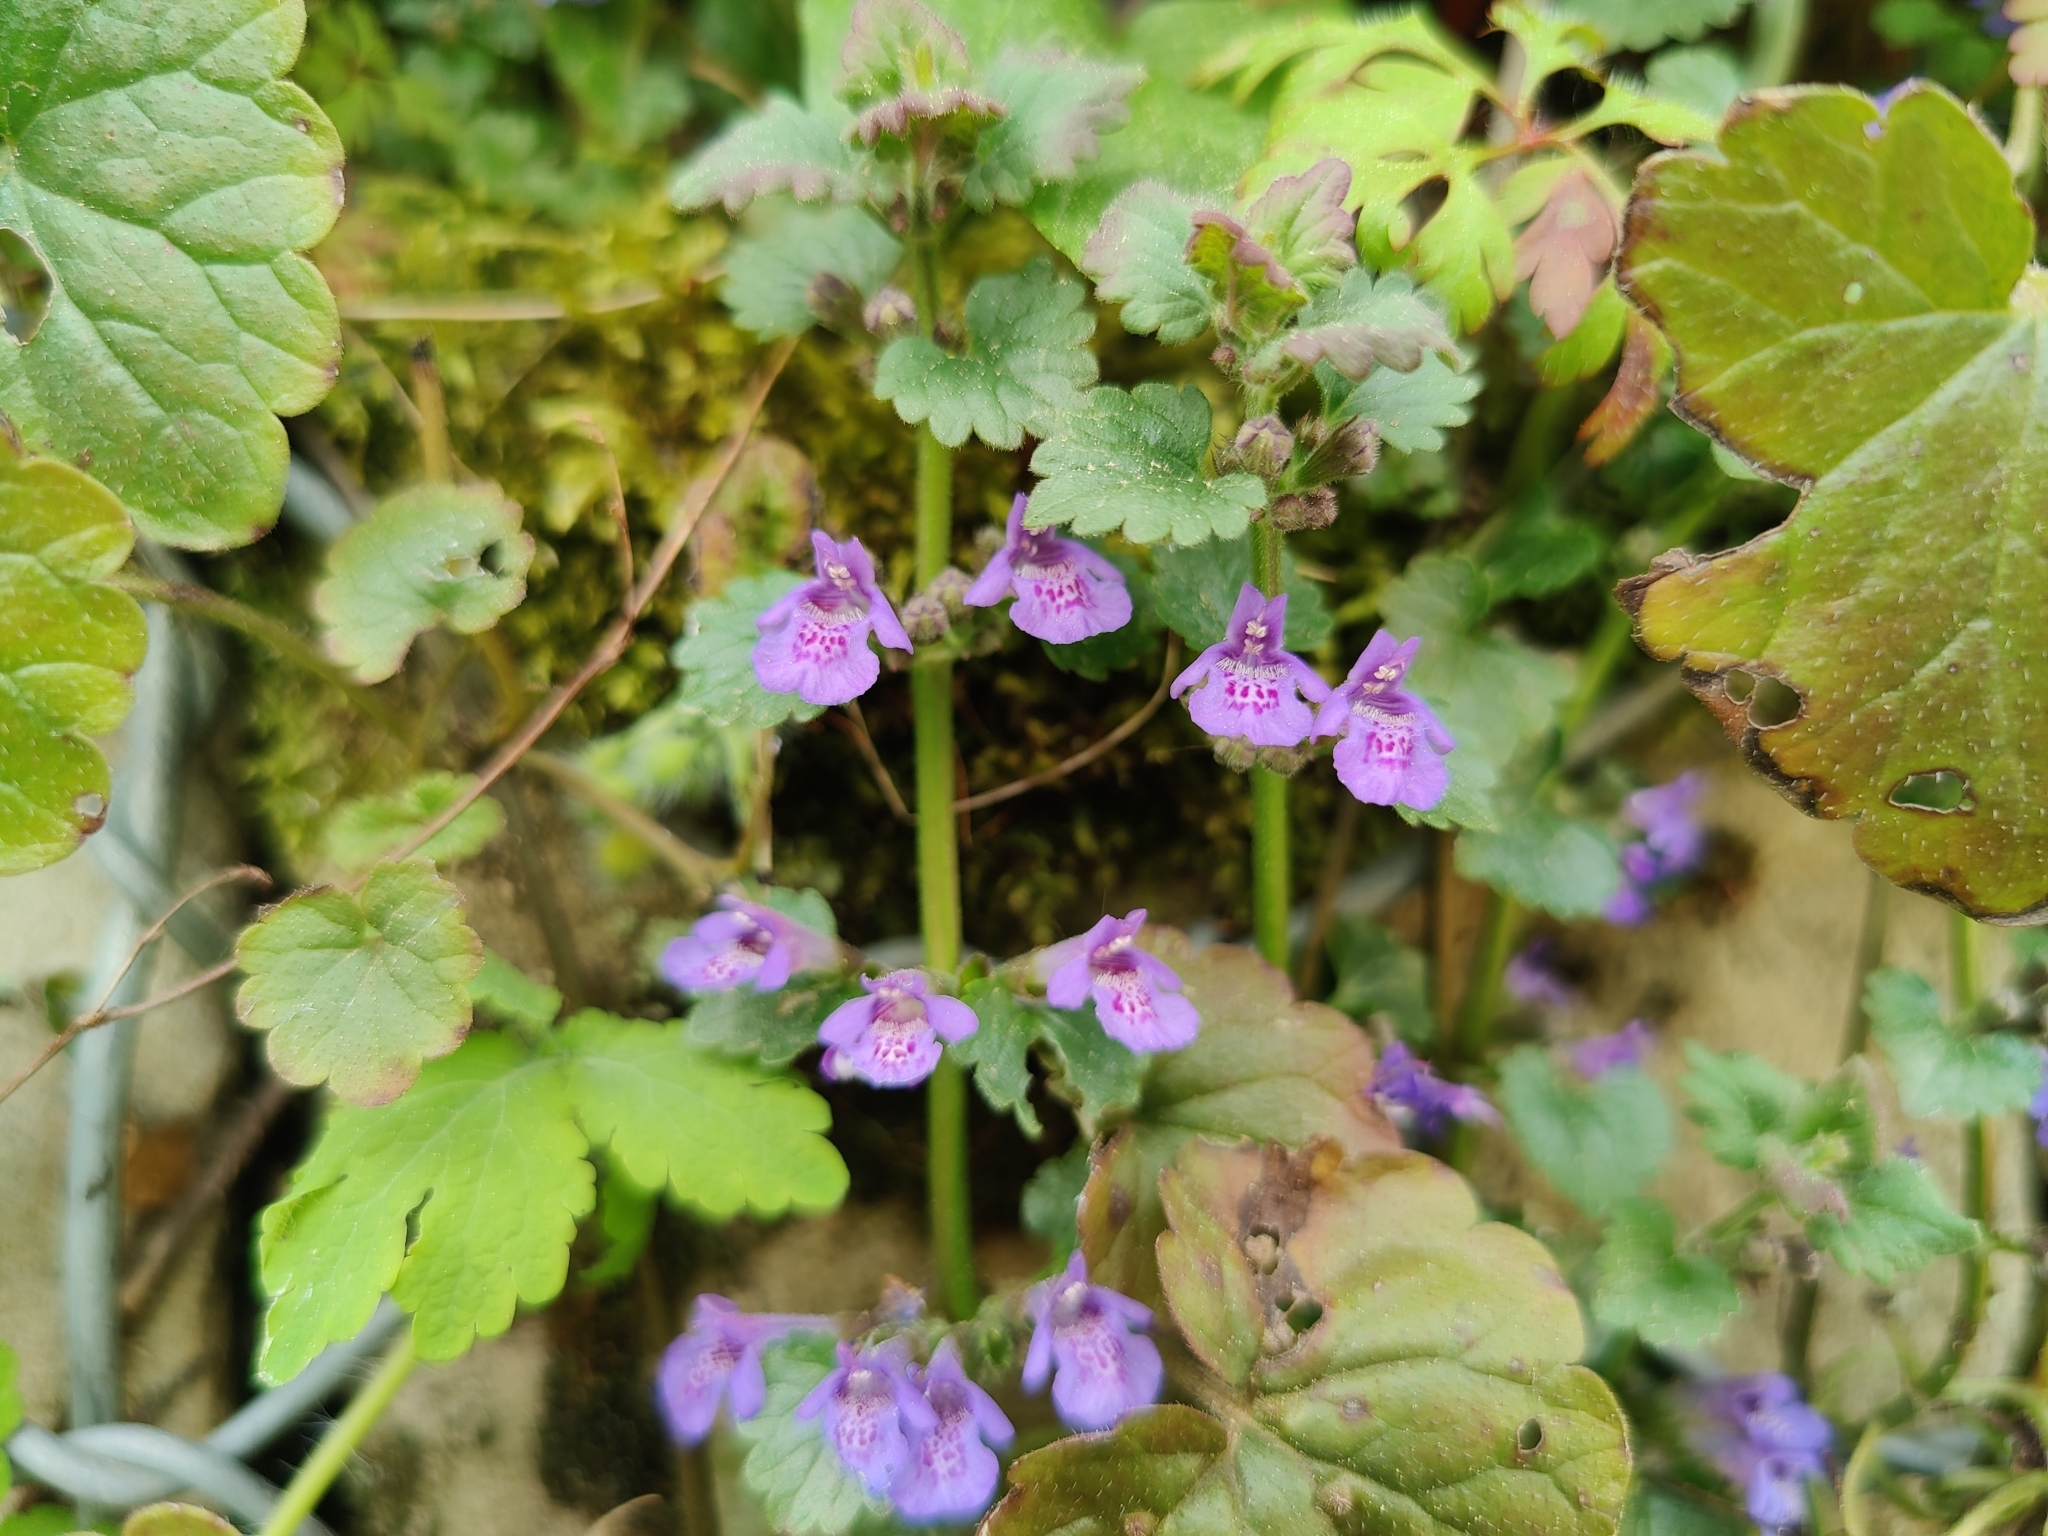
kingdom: Plantae
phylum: Tracheophyta
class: Magnoliopsida
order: Lamiales
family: Lamiaceae
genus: Glechoma
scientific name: Glechoma hederacea
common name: Ground ivy
